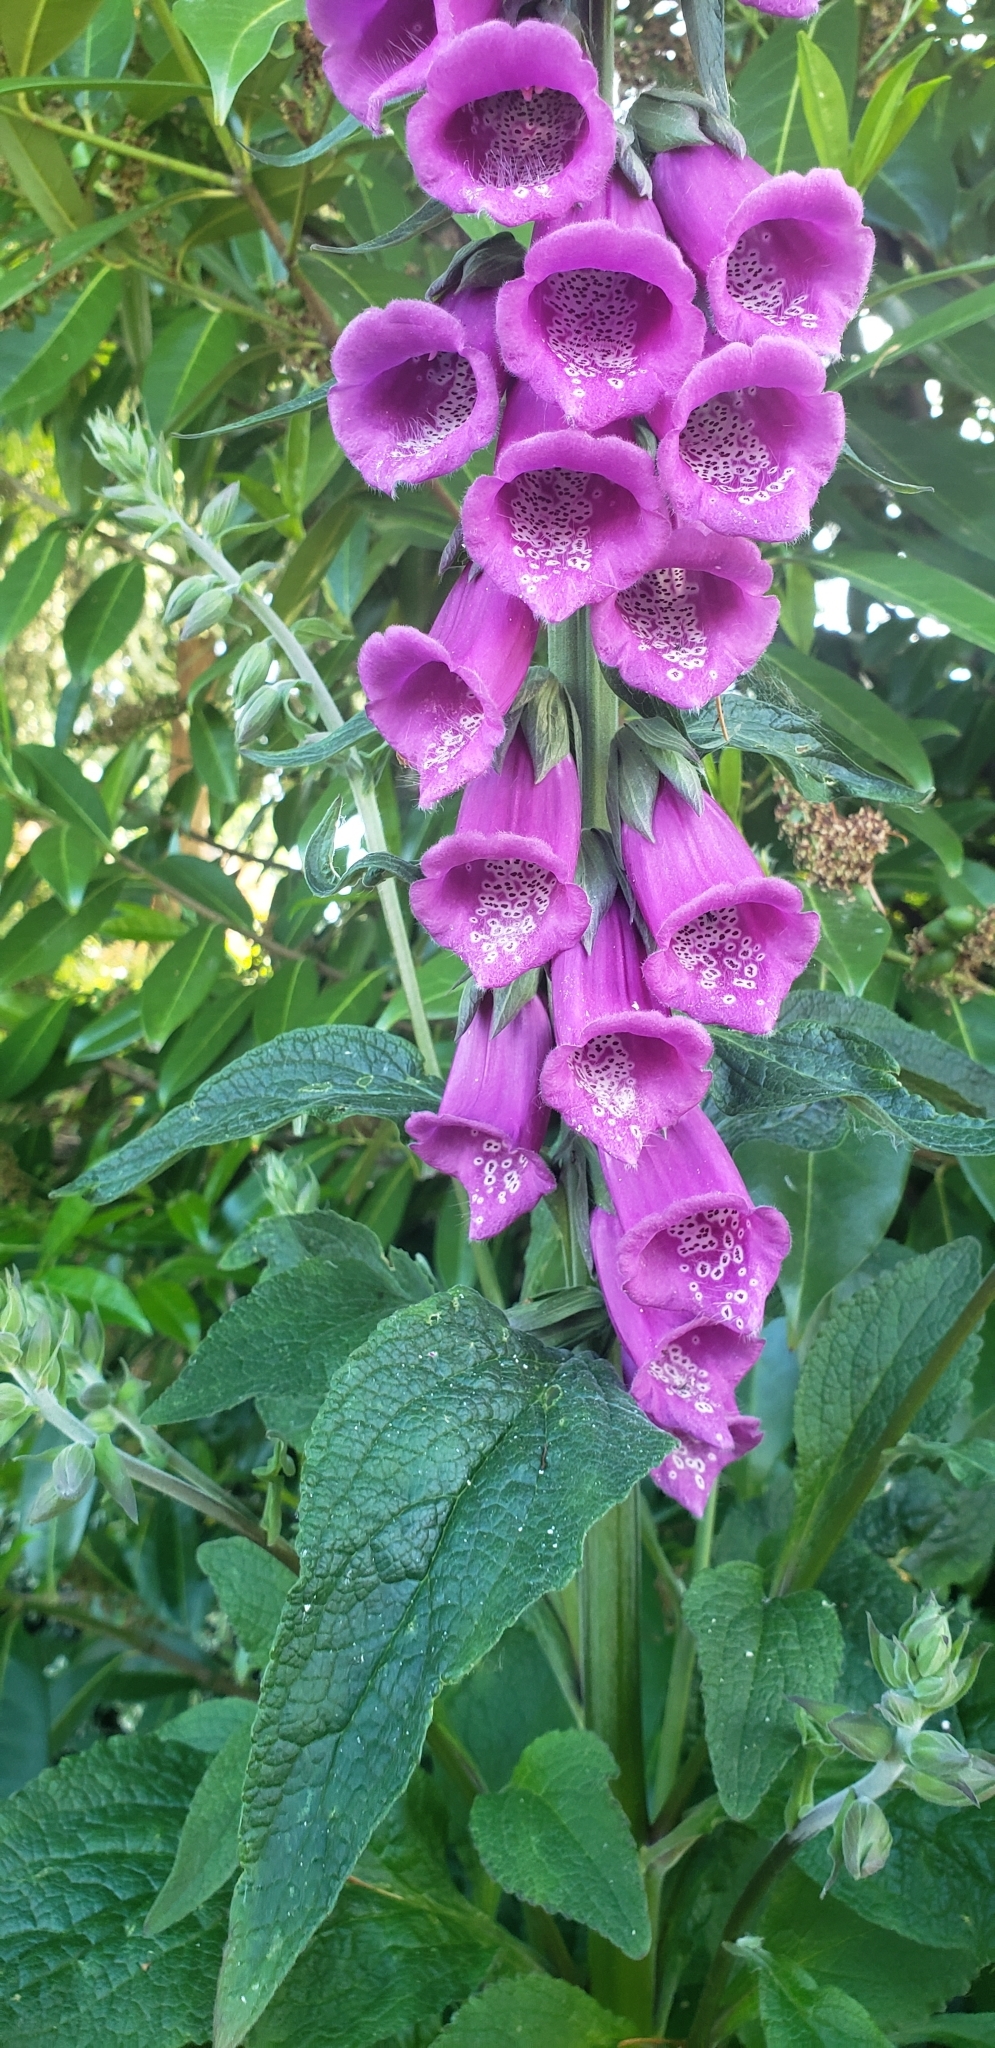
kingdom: Plantae
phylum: Tracheophyta
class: Magnoliopsida
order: Lamiales
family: Plantaginaceae
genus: Digitalis
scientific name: Digitalis purpurea
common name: Foxglove
